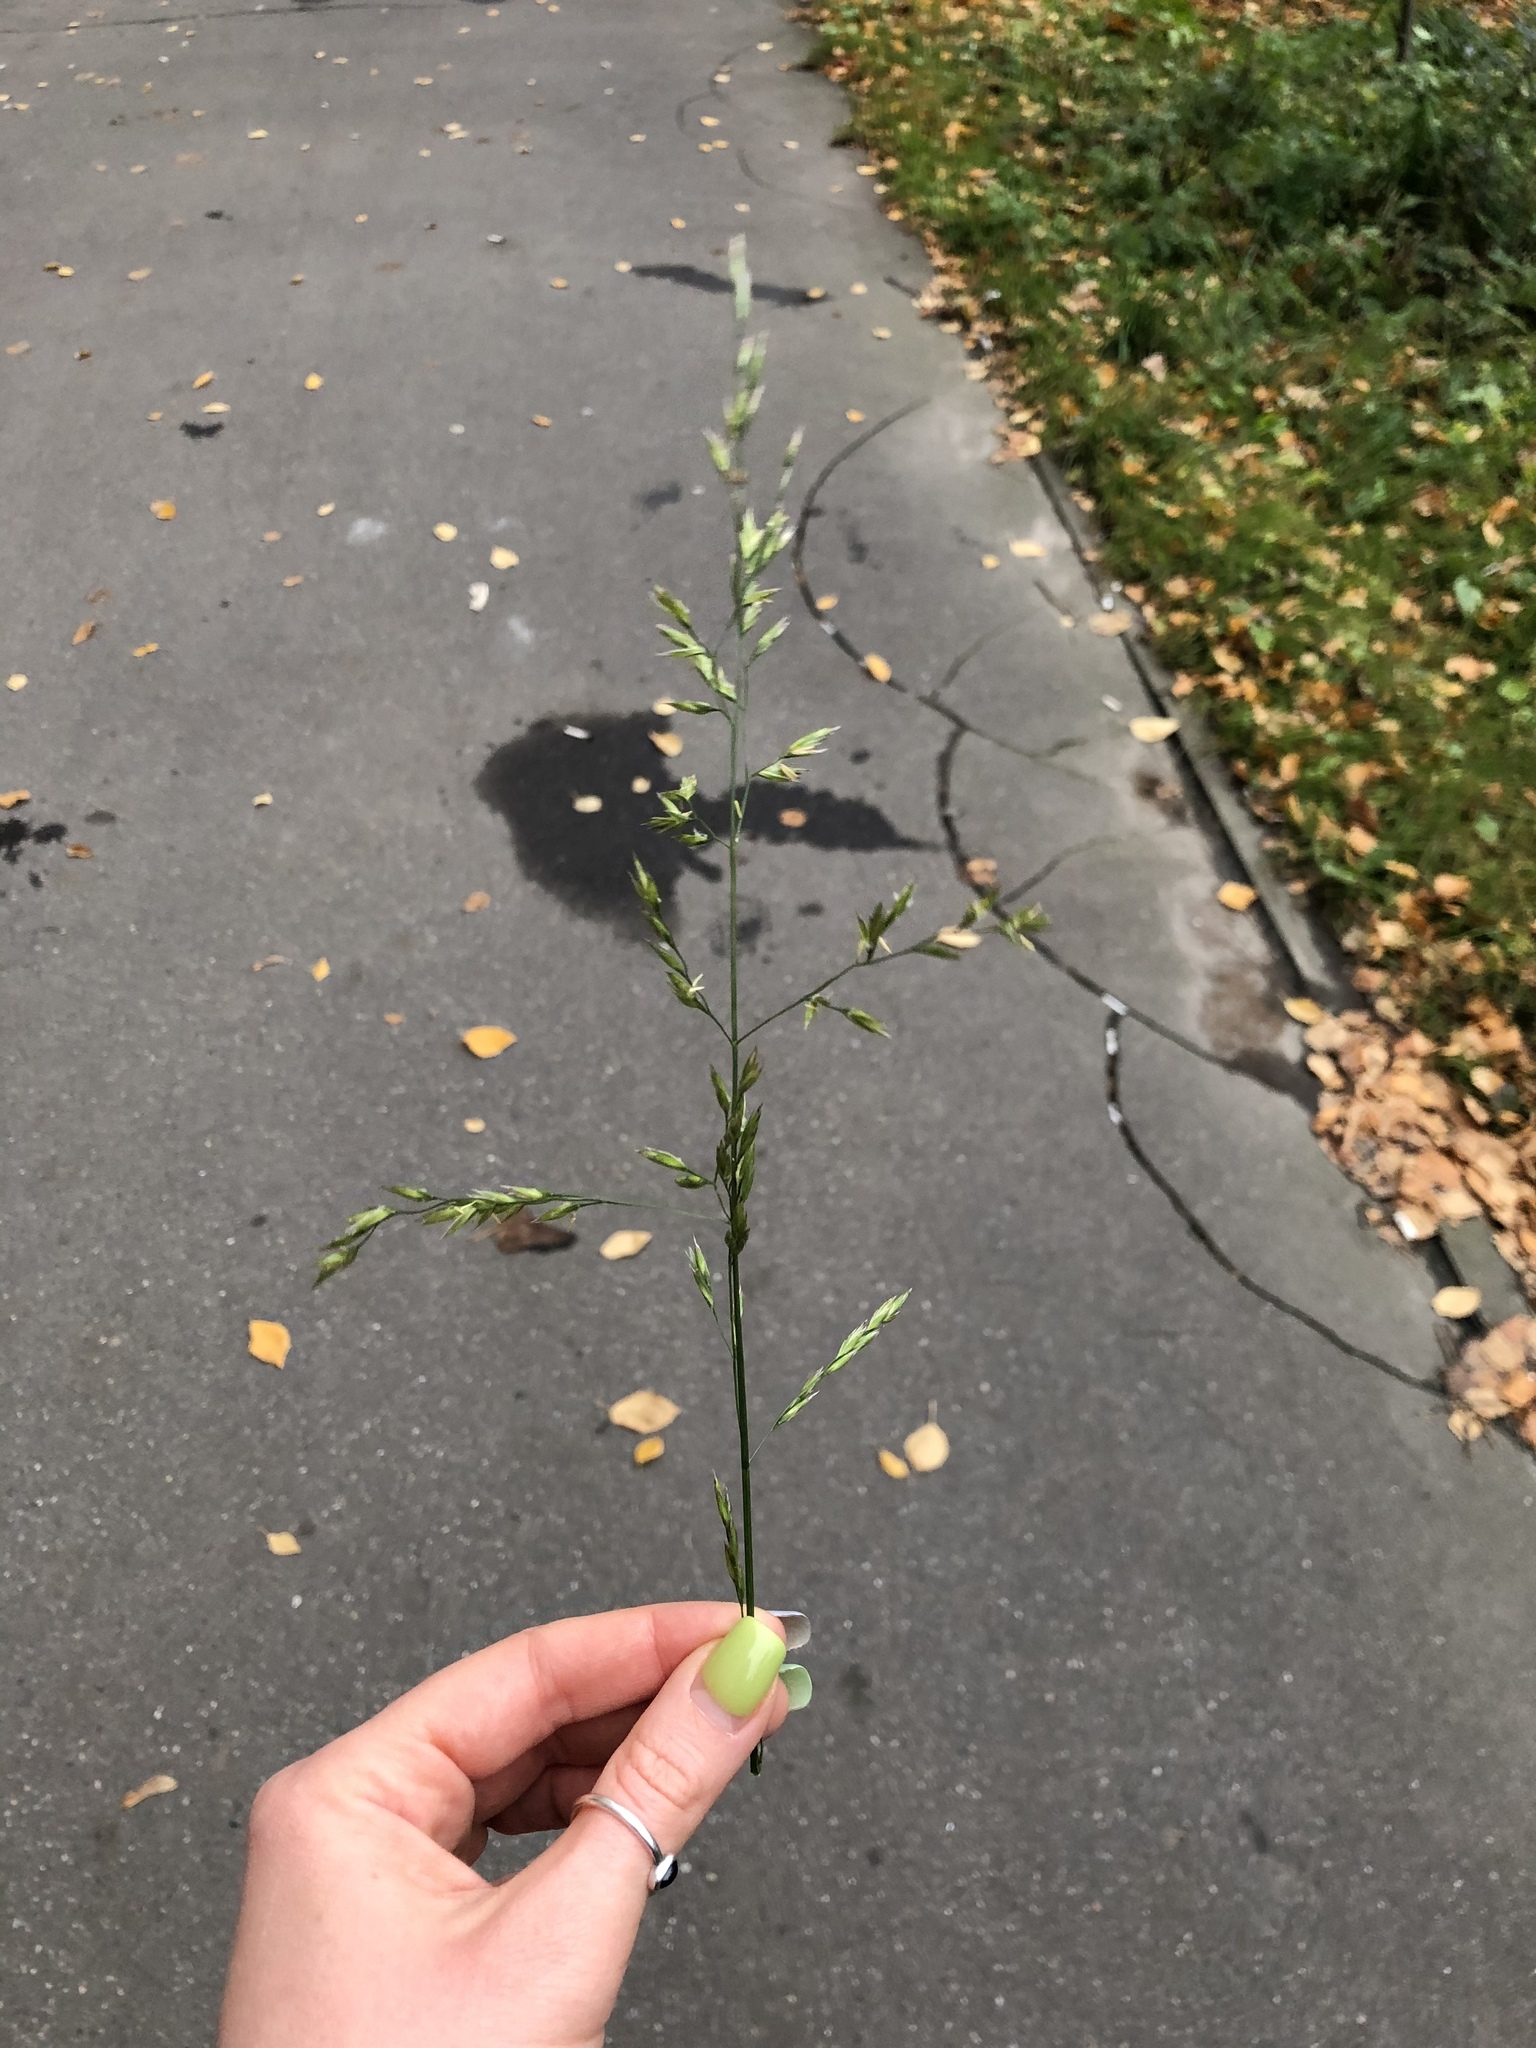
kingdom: Plantae
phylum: Tracheophyta
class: Liliopsida
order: Poales
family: Poaceae
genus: Lolium
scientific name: Lolium arundinaceum
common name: Reed fescue
